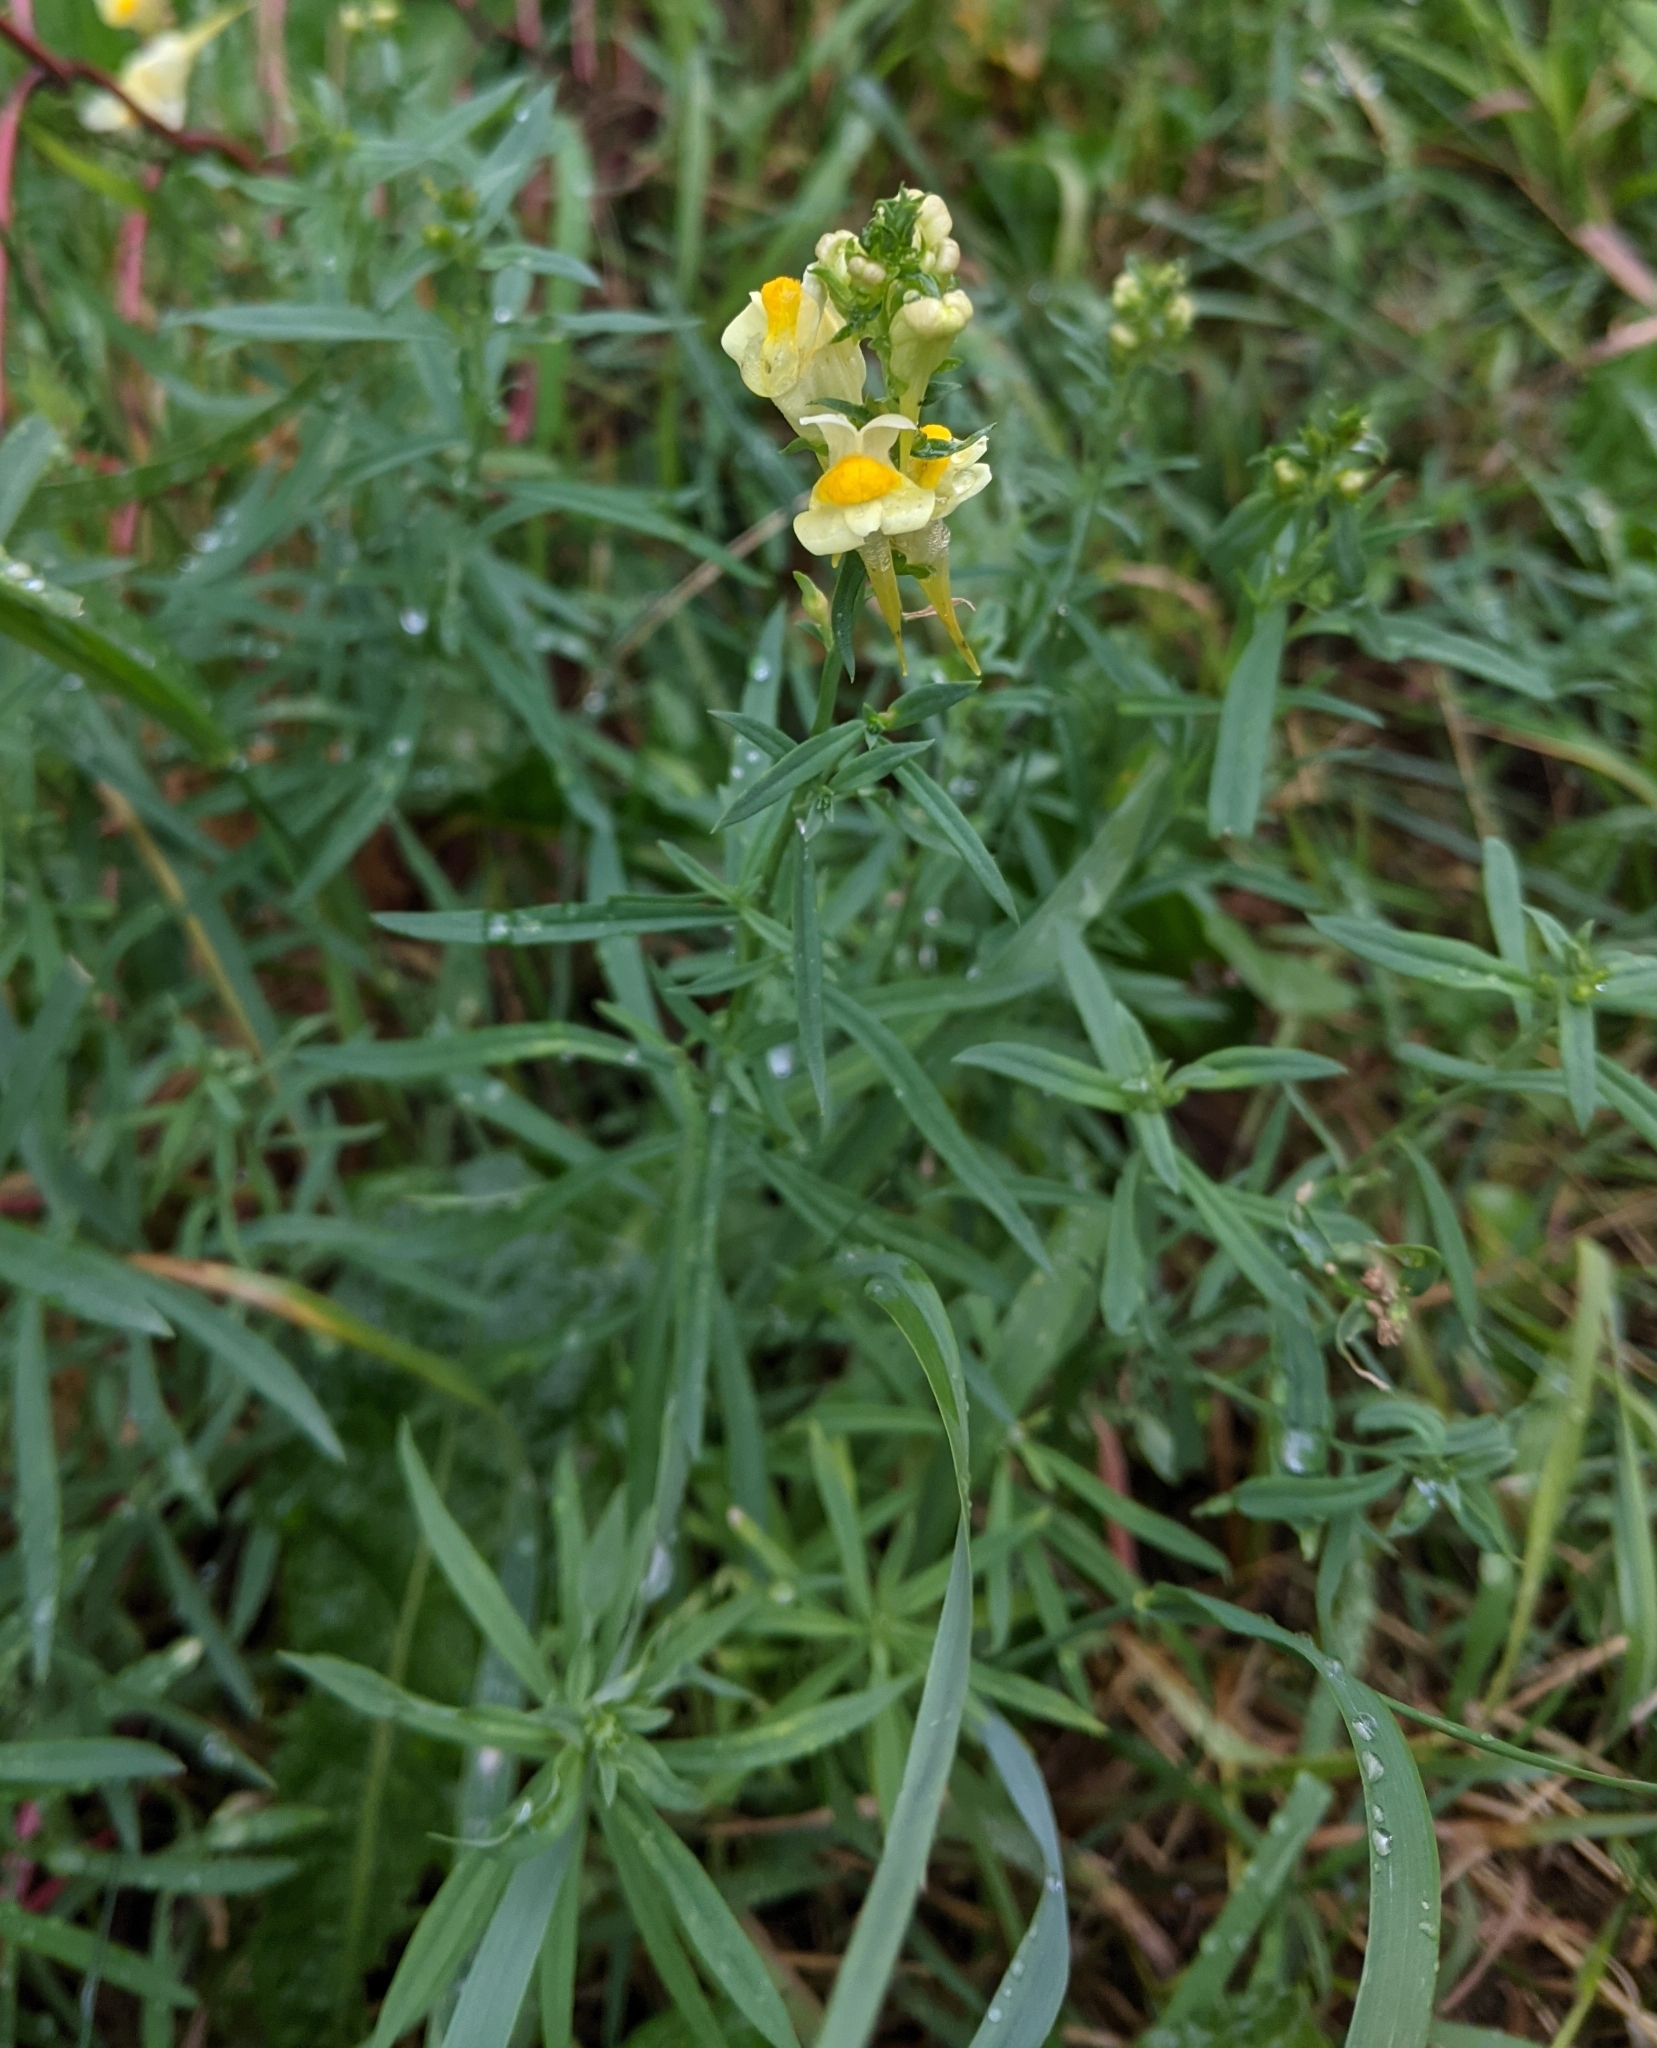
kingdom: Plantae
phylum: Tracheophyta
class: Magnoliopsida
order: Lamiales
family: Plantaginaceae
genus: Linaria
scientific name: Linaria vulgaris
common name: Butter and eggs
